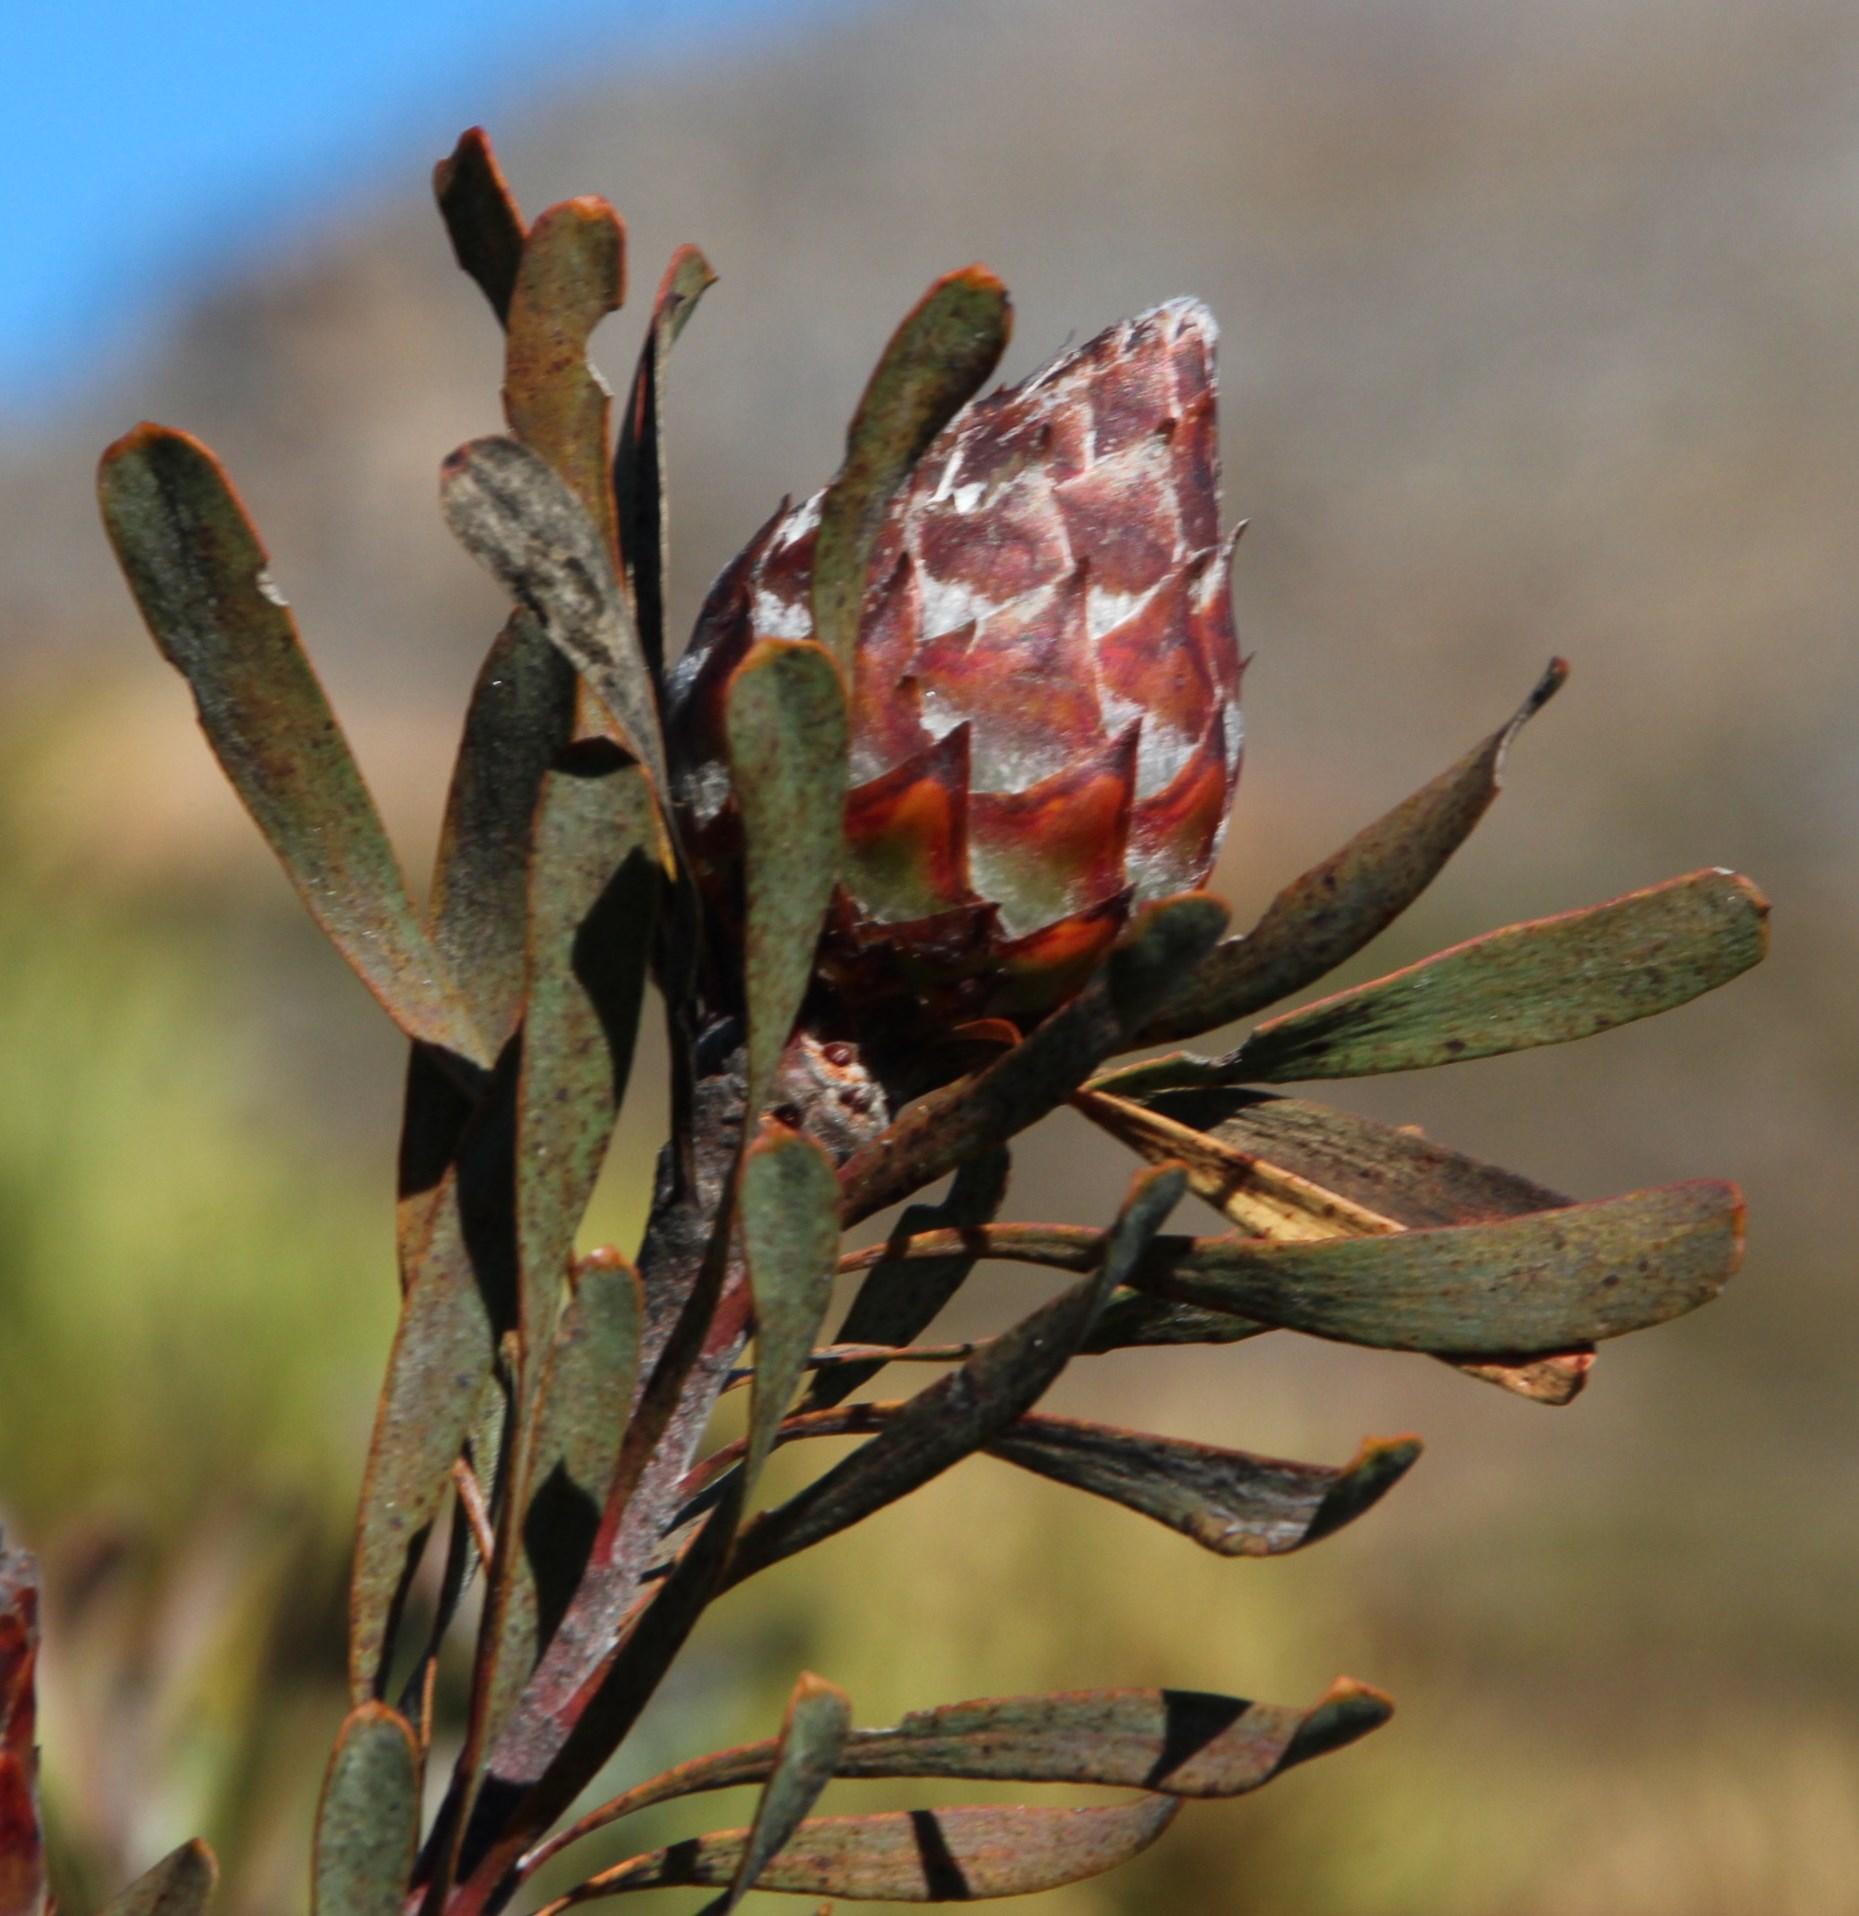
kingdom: Plantae
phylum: Tracheophyta
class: Magnoliopsida
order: Proteales
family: Proteaceae
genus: Leucadendron
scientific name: Leucadendron rubrum
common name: Spinning top
